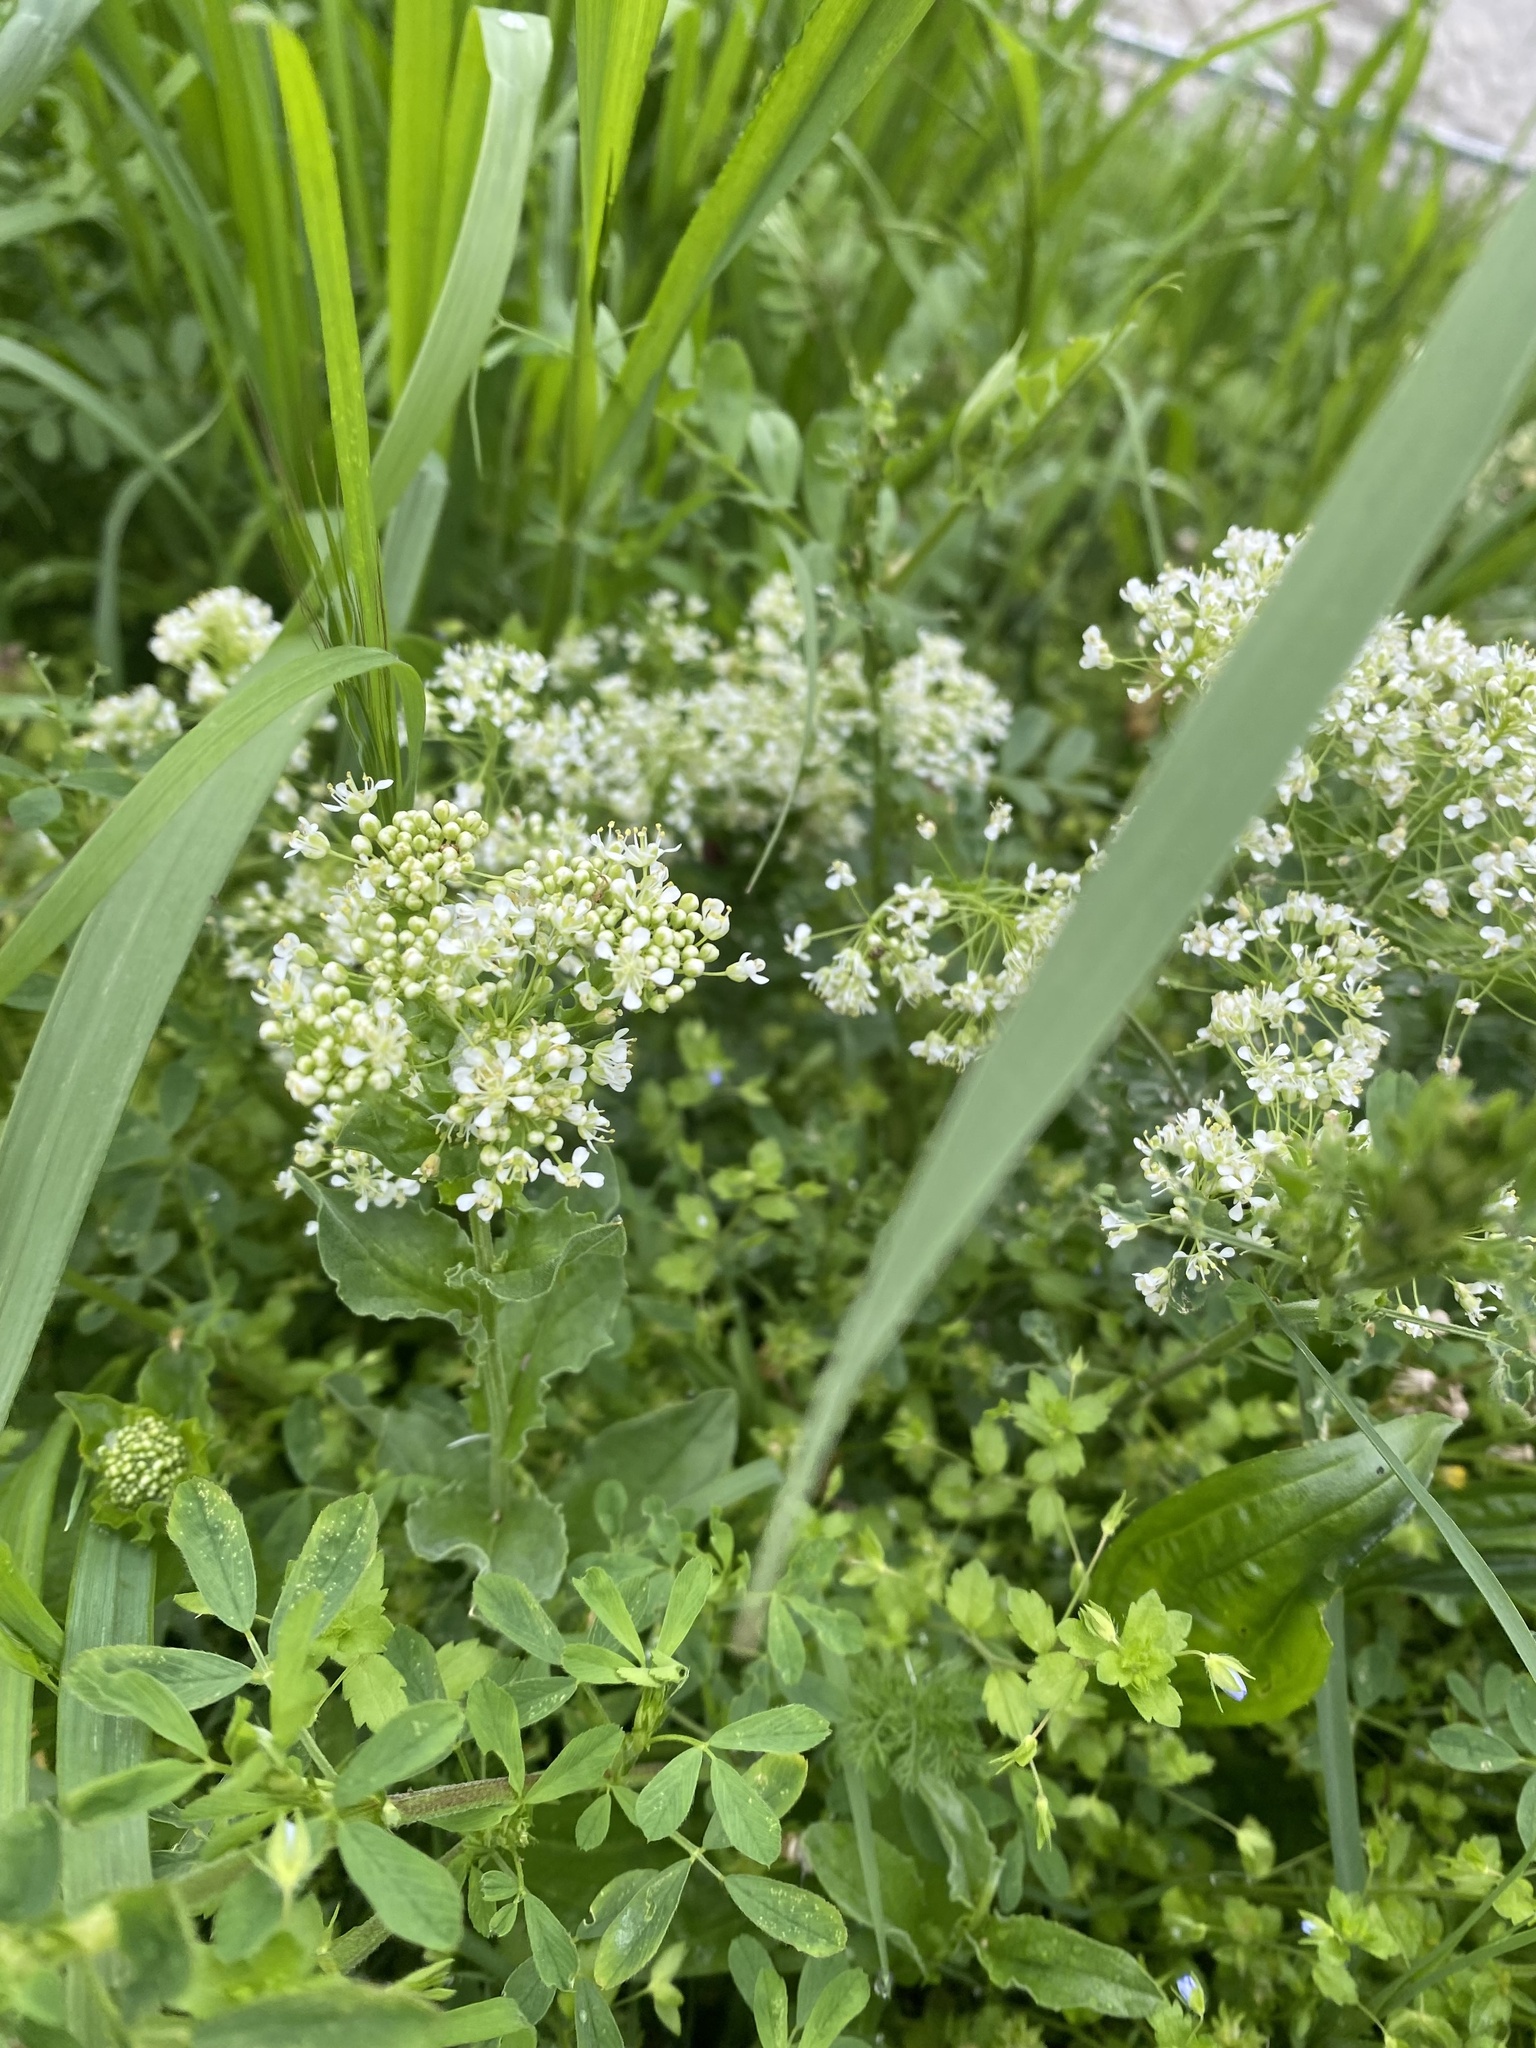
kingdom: Plantae
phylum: Tracheophyta
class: Magnoliopsida
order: Brassicales
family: Brassicaceae
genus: Lepidium
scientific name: Lepidium draba
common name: Hoary cress
